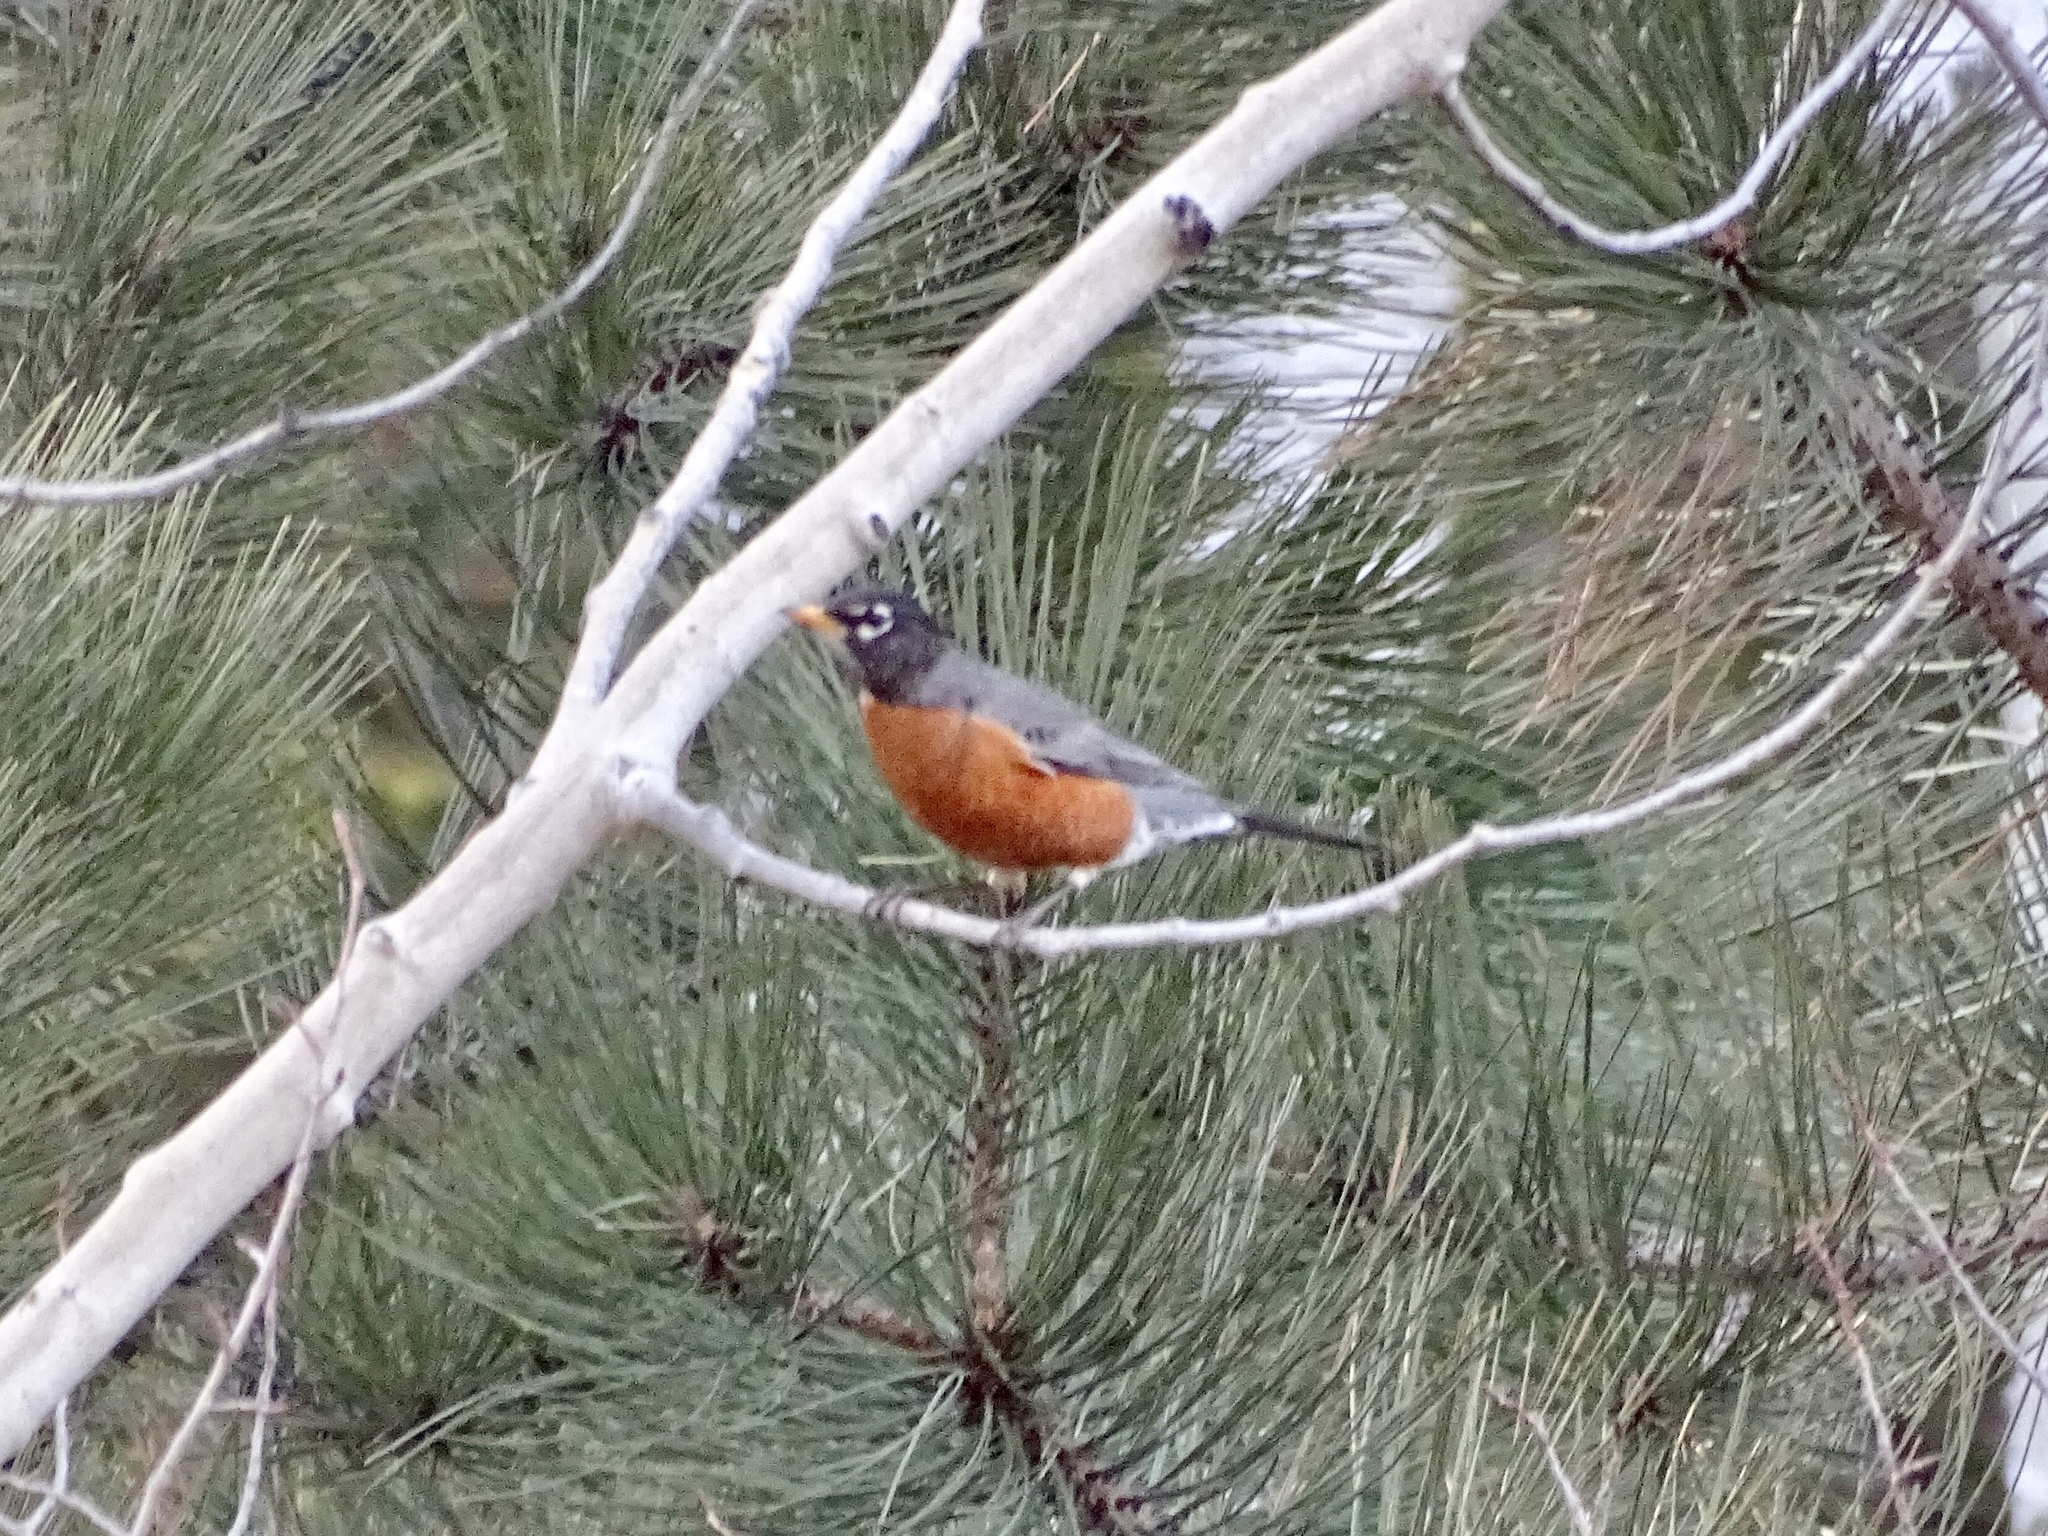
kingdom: Animalia
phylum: Chordata
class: Aves
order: Passeriformes
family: Turdidae
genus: Turdus
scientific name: Turdus migratorius
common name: American robin
